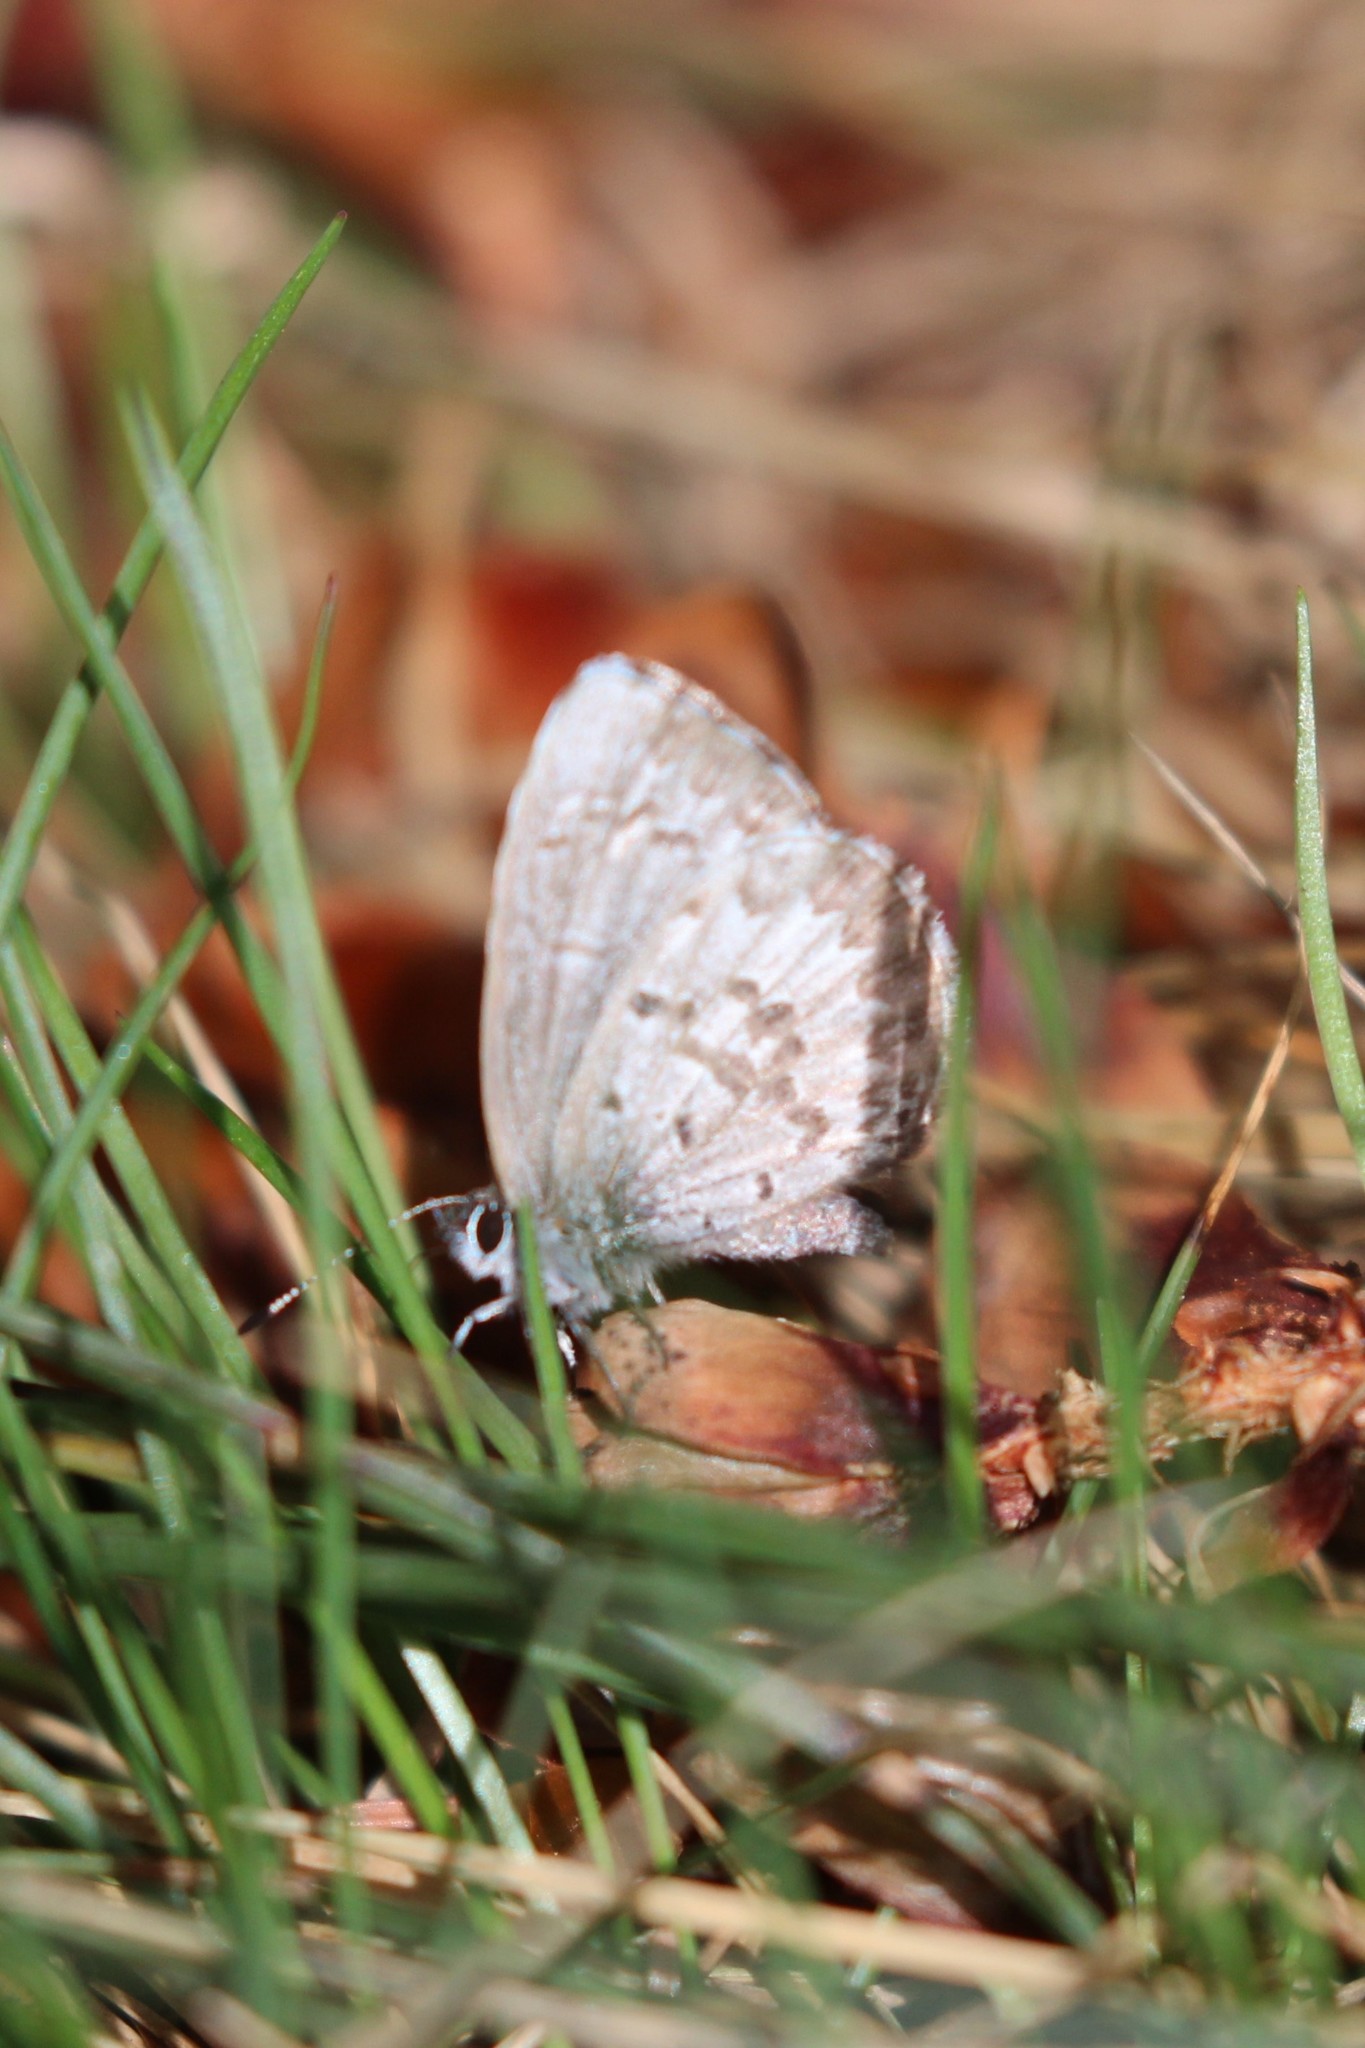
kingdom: Animalia
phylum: Arthropoda
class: Insecta
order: Lepidoptera
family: Lycaenidae
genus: Celastrina
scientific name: Celastrina lucia
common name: Lucia azure
